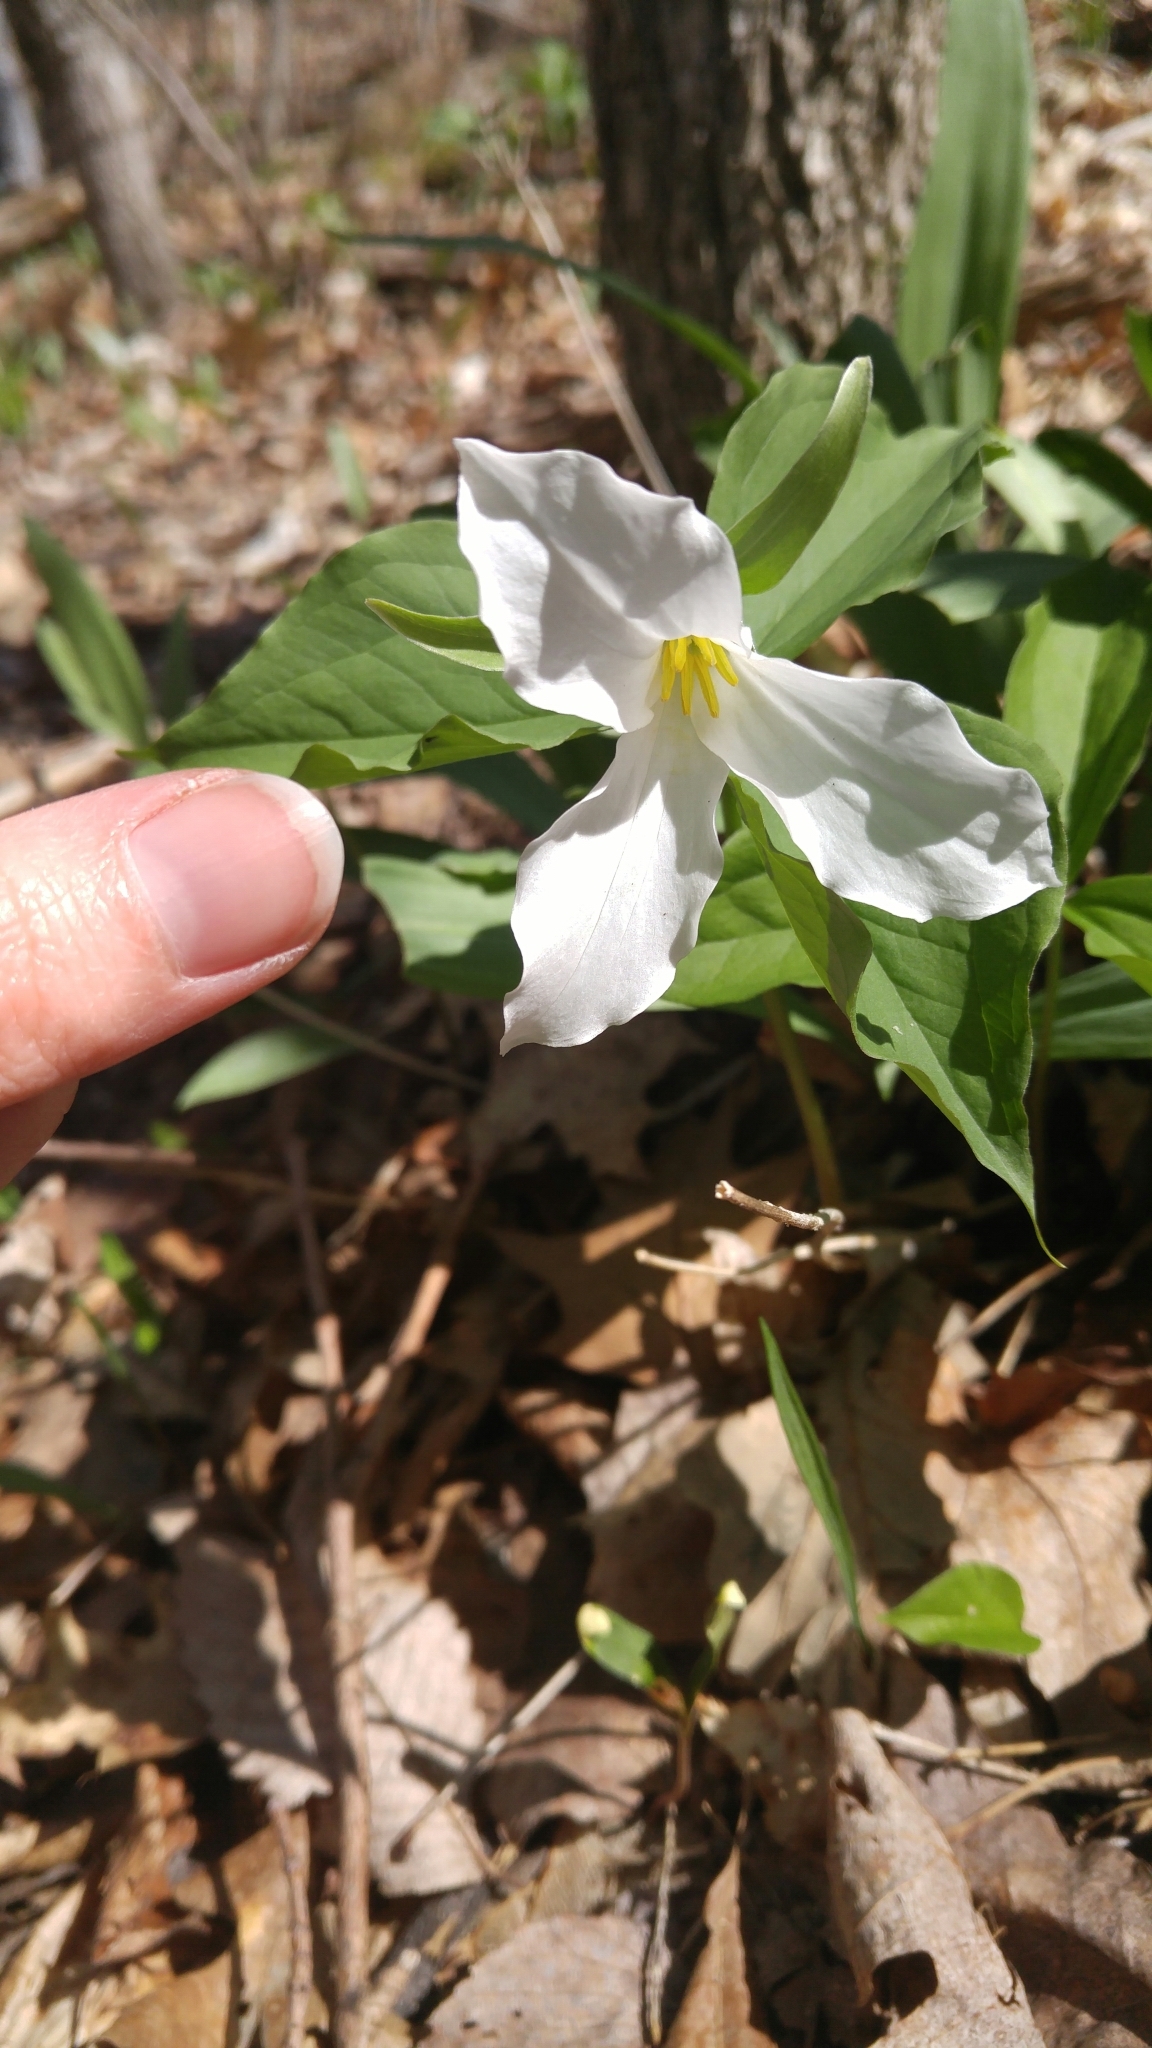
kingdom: Plantae
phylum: Tracheophyta
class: Liliopsida
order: Liliales
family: Melanthiaceae
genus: Trillium
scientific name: Trillium grandiflorum
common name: Great white trillium
